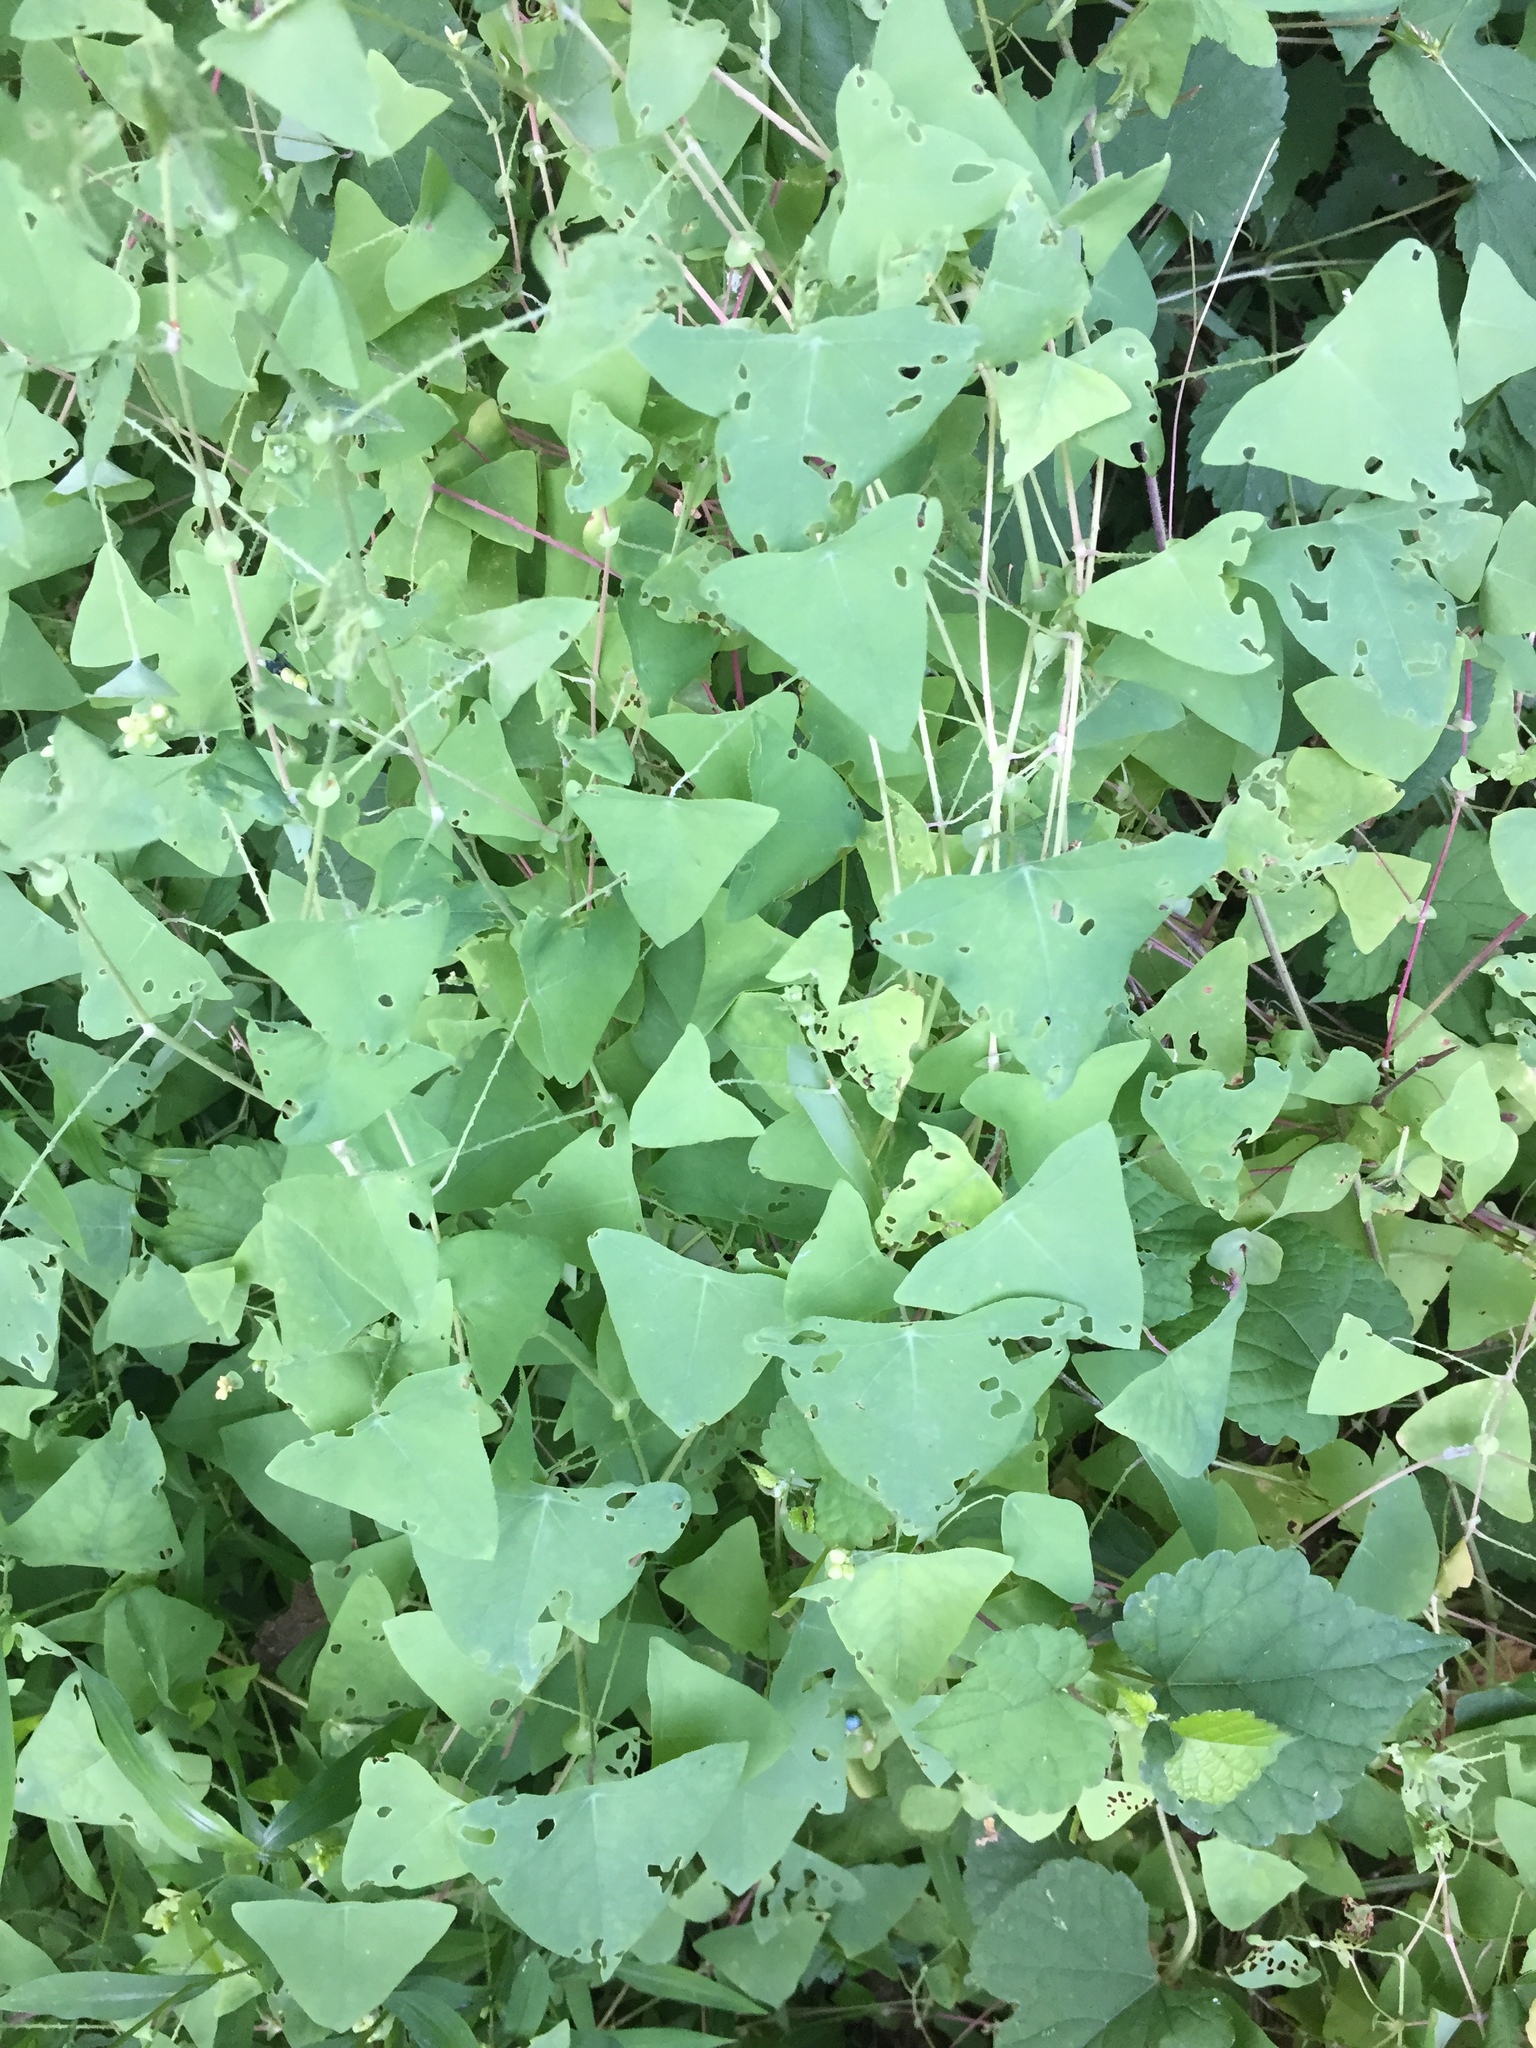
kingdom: Plantae
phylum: Tracheophyta
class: Magnoliopsida
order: Caryophyllales
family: Polygonaceae
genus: Persicaria
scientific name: Persicaria perfoliata
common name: Asiatic tearthumb
